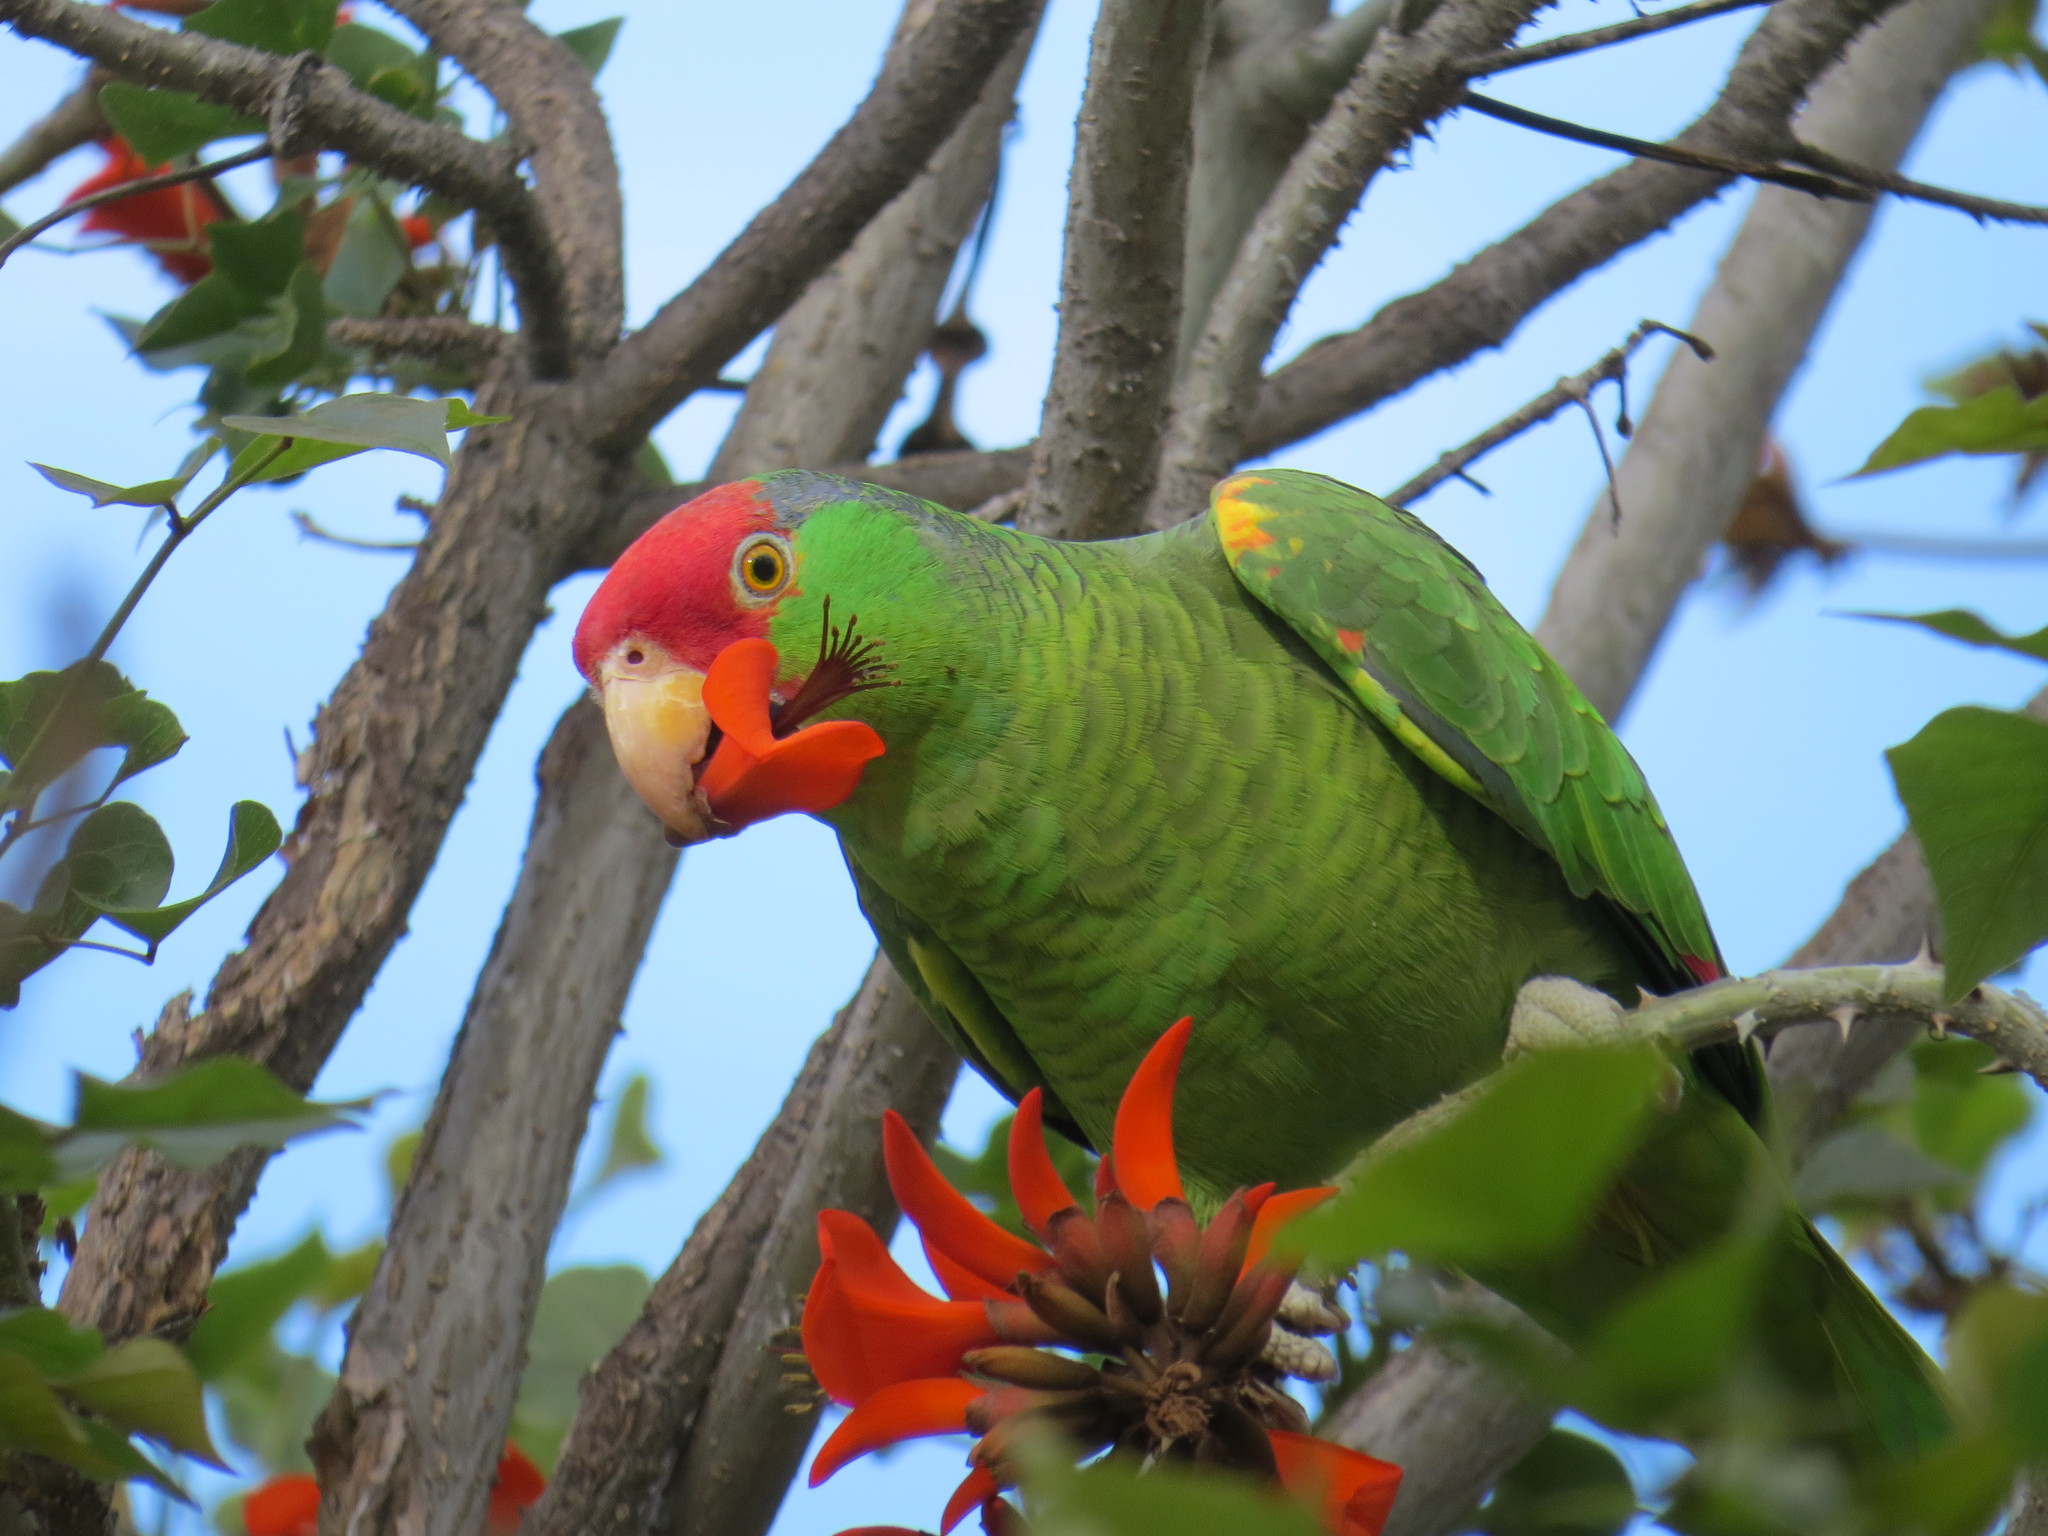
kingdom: Animalia
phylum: Chordata
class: Aves
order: Psittaciformes
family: Psittacidae
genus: Amazona
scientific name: Amazona viridigenalis
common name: Red-crowned amazon
